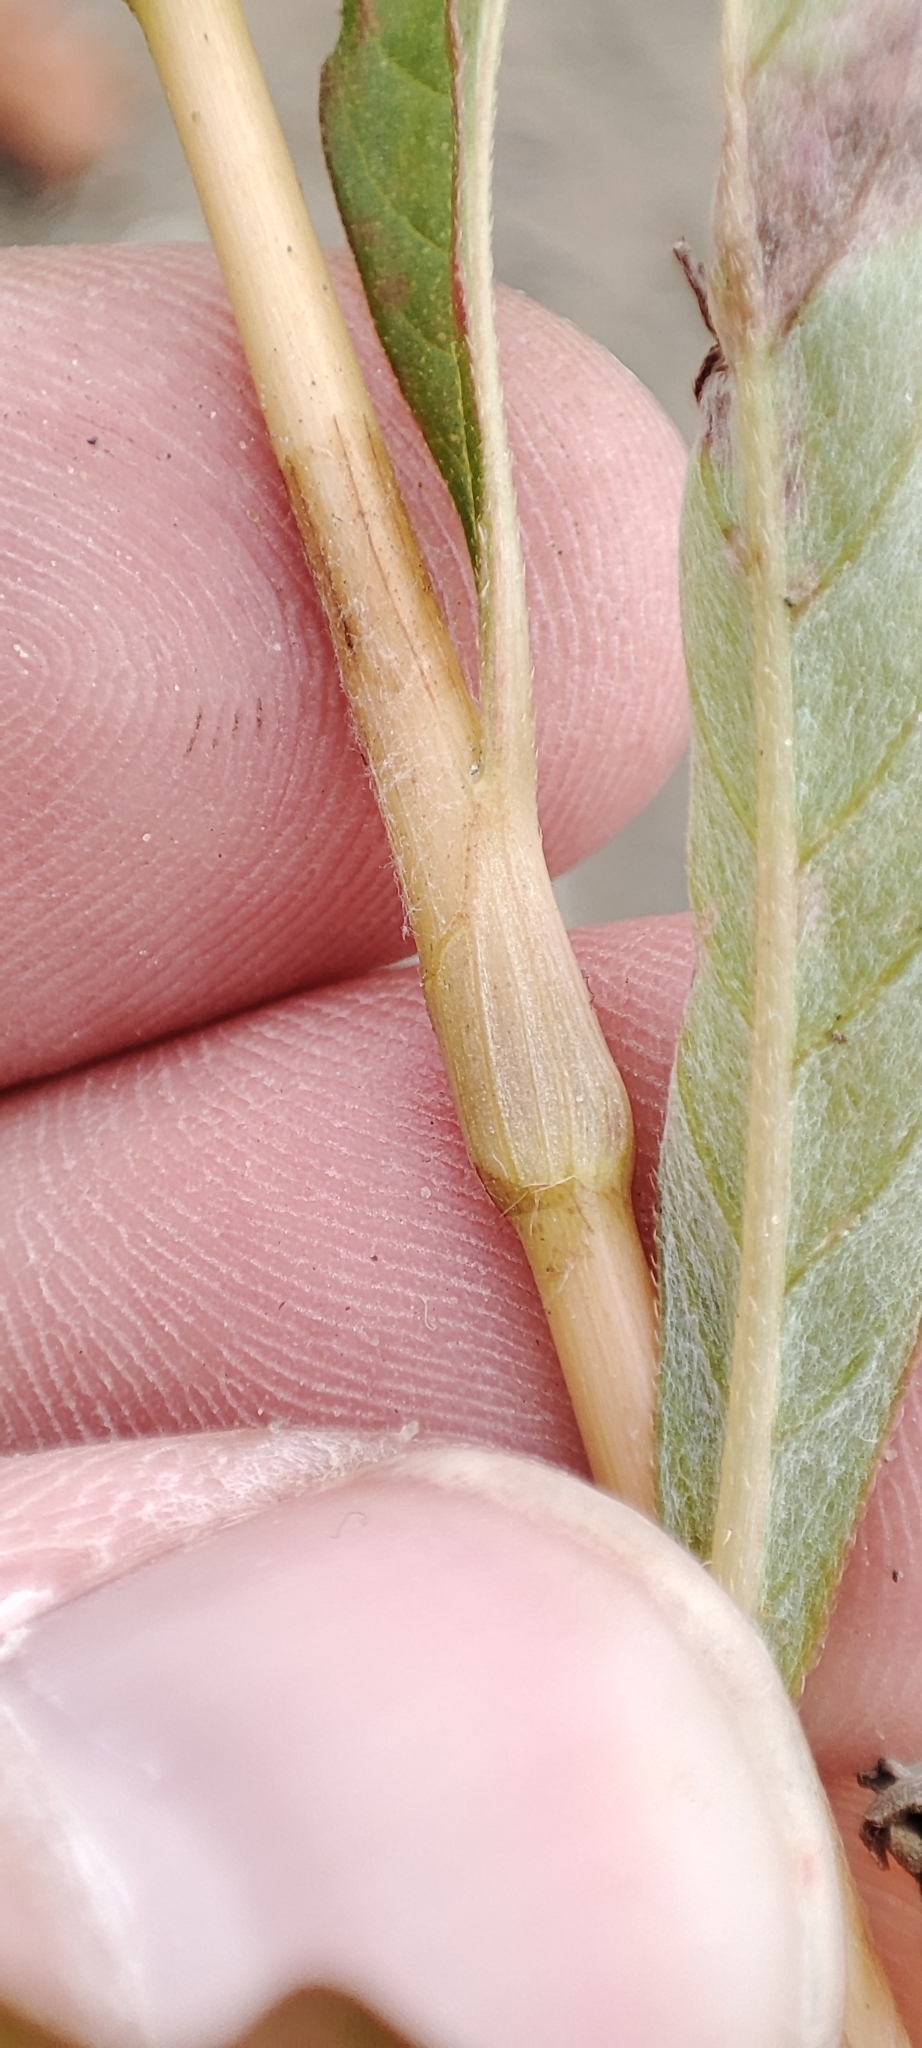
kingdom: Plantae
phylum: Tracheophyta
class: Magnoliopsida
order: Caryophyllales
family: Polygonaceae
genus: Persicaria
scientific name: Persicaria maculosa
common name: Redshank
